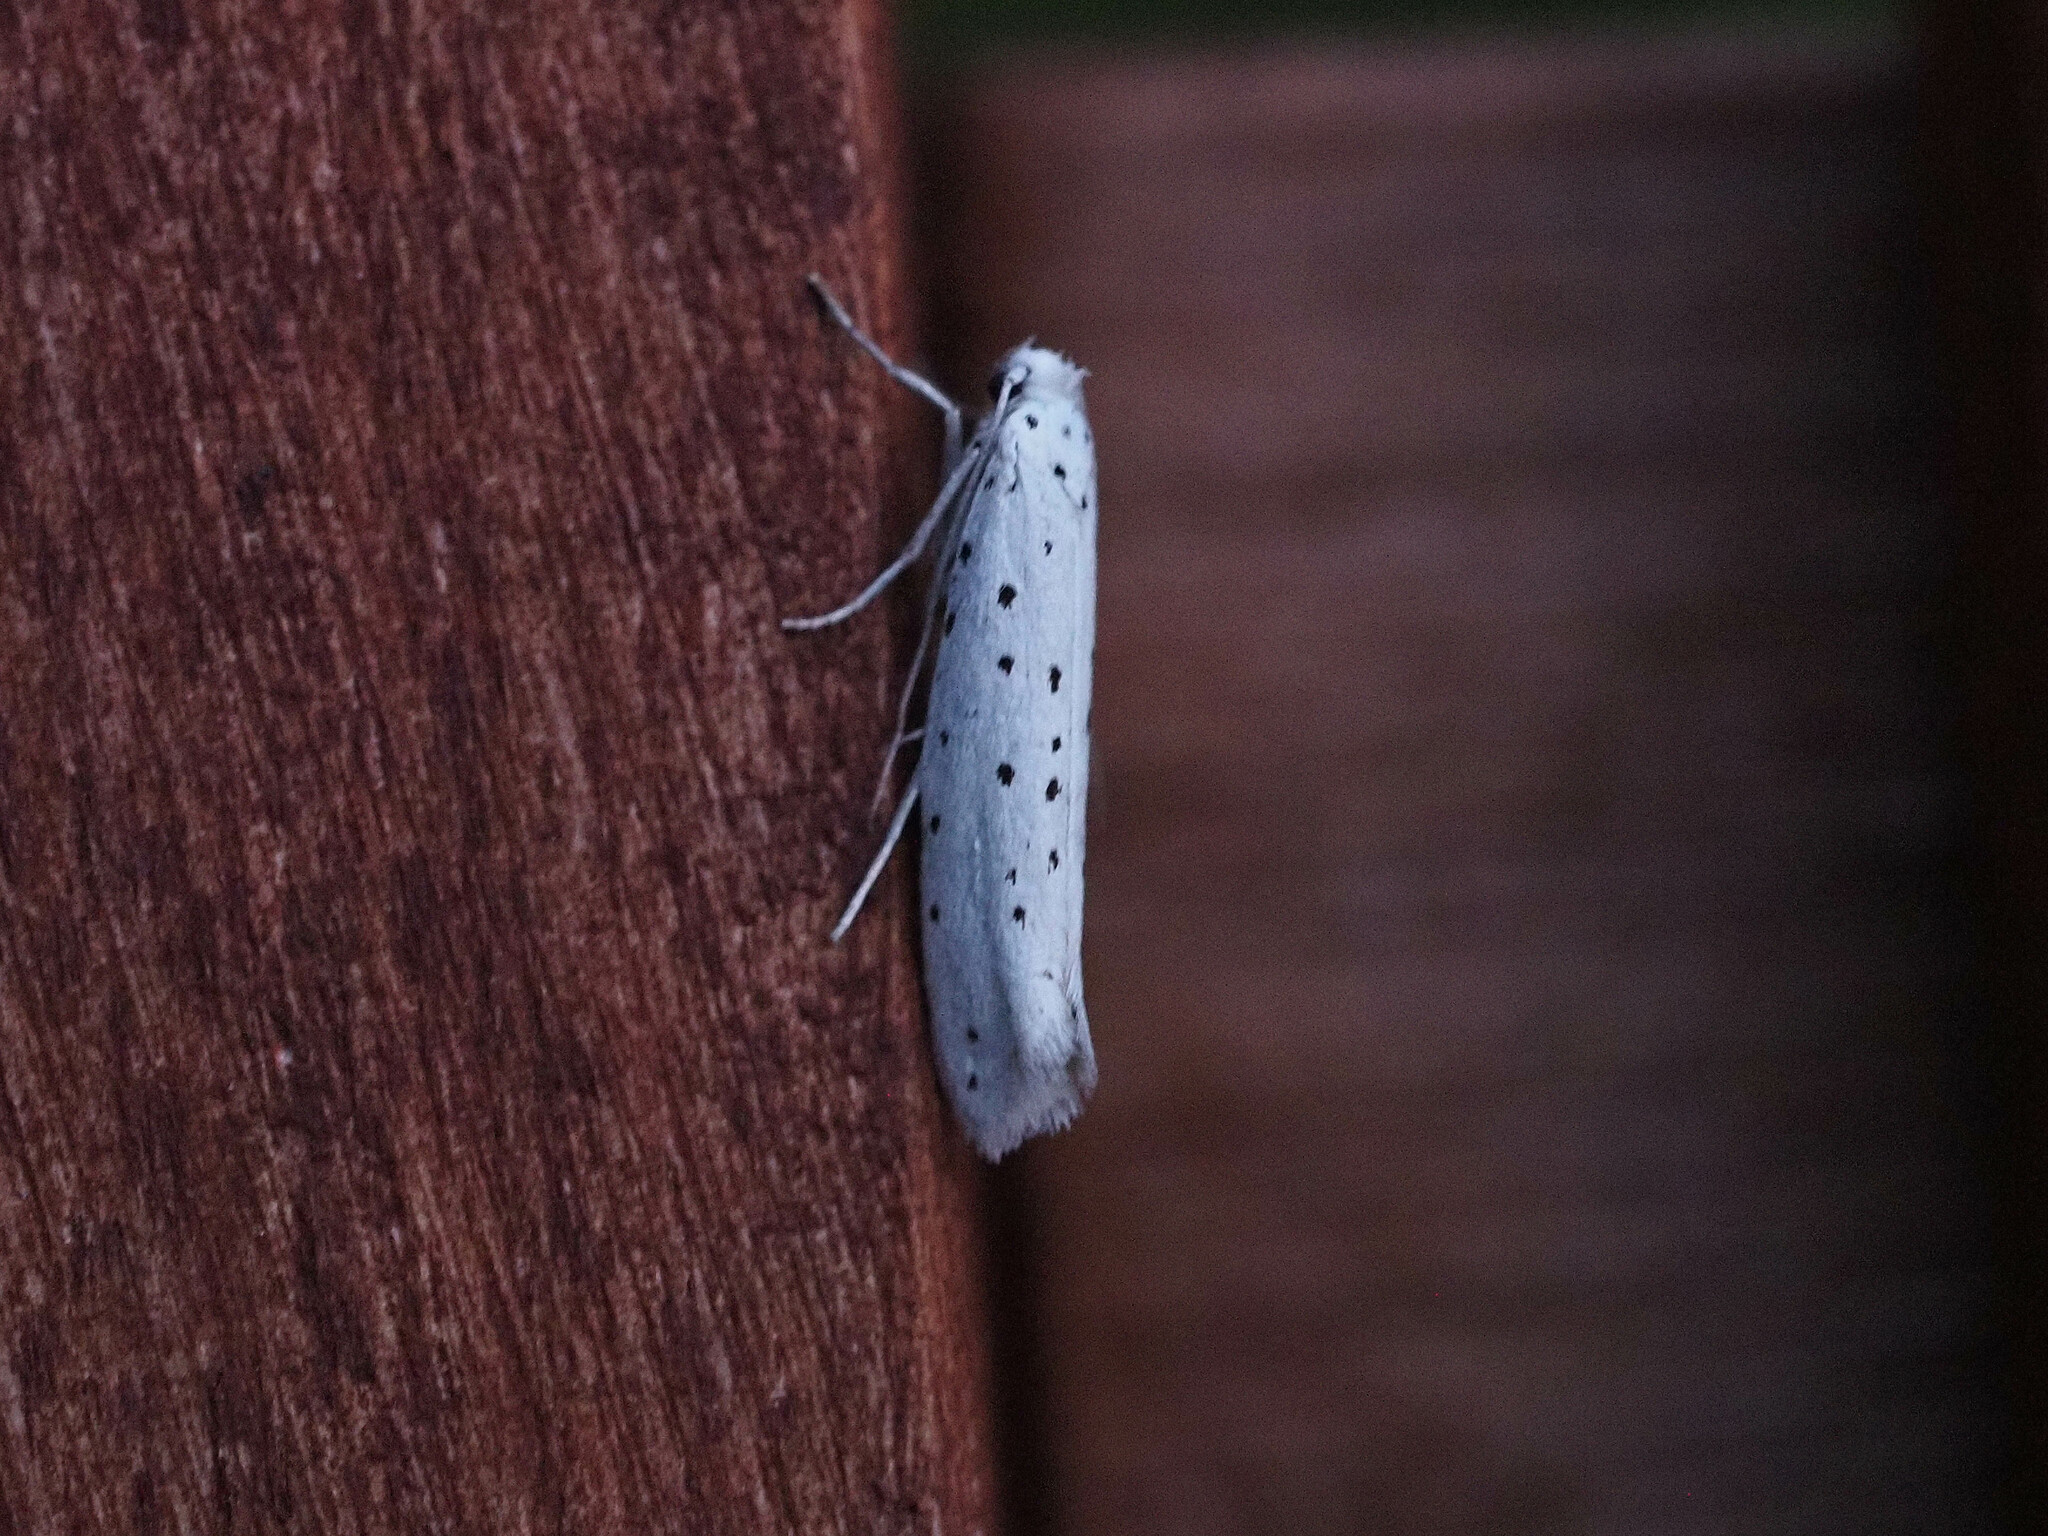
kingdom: Animalia
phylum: Arthropoda
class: Insecta
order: Lepidoptera
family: Yponomeutidae
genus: Yponomeuta
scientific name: Yponomeuta
